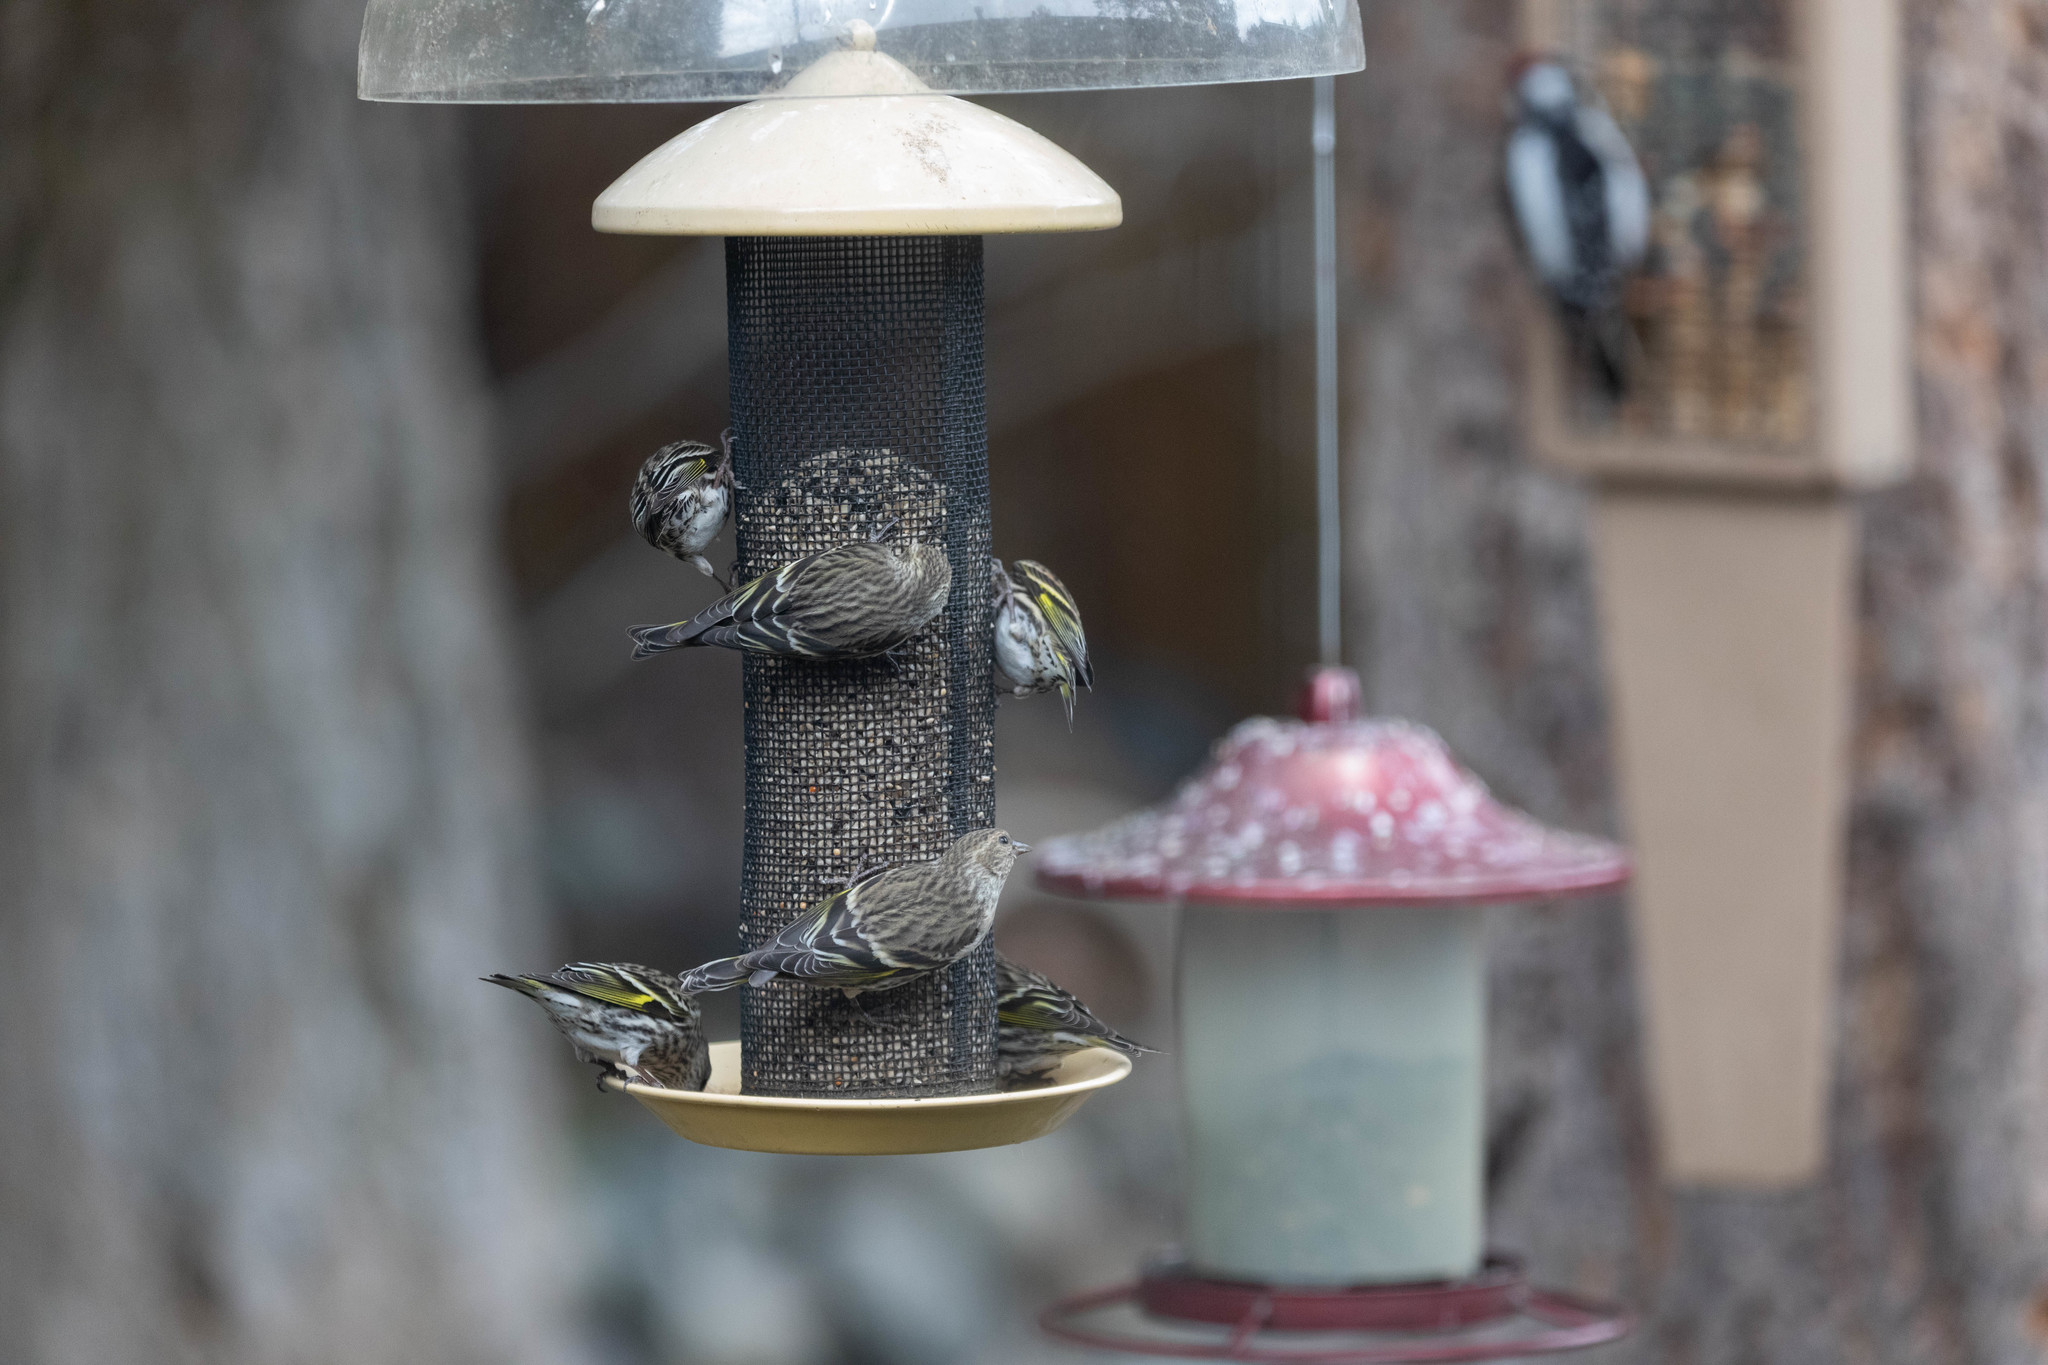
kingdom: Animalia
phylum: Chordata
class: Aves
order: Passeriformes
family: Fringillidae
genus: Spinus
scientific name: Spinus pinus
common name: Pine siskin
